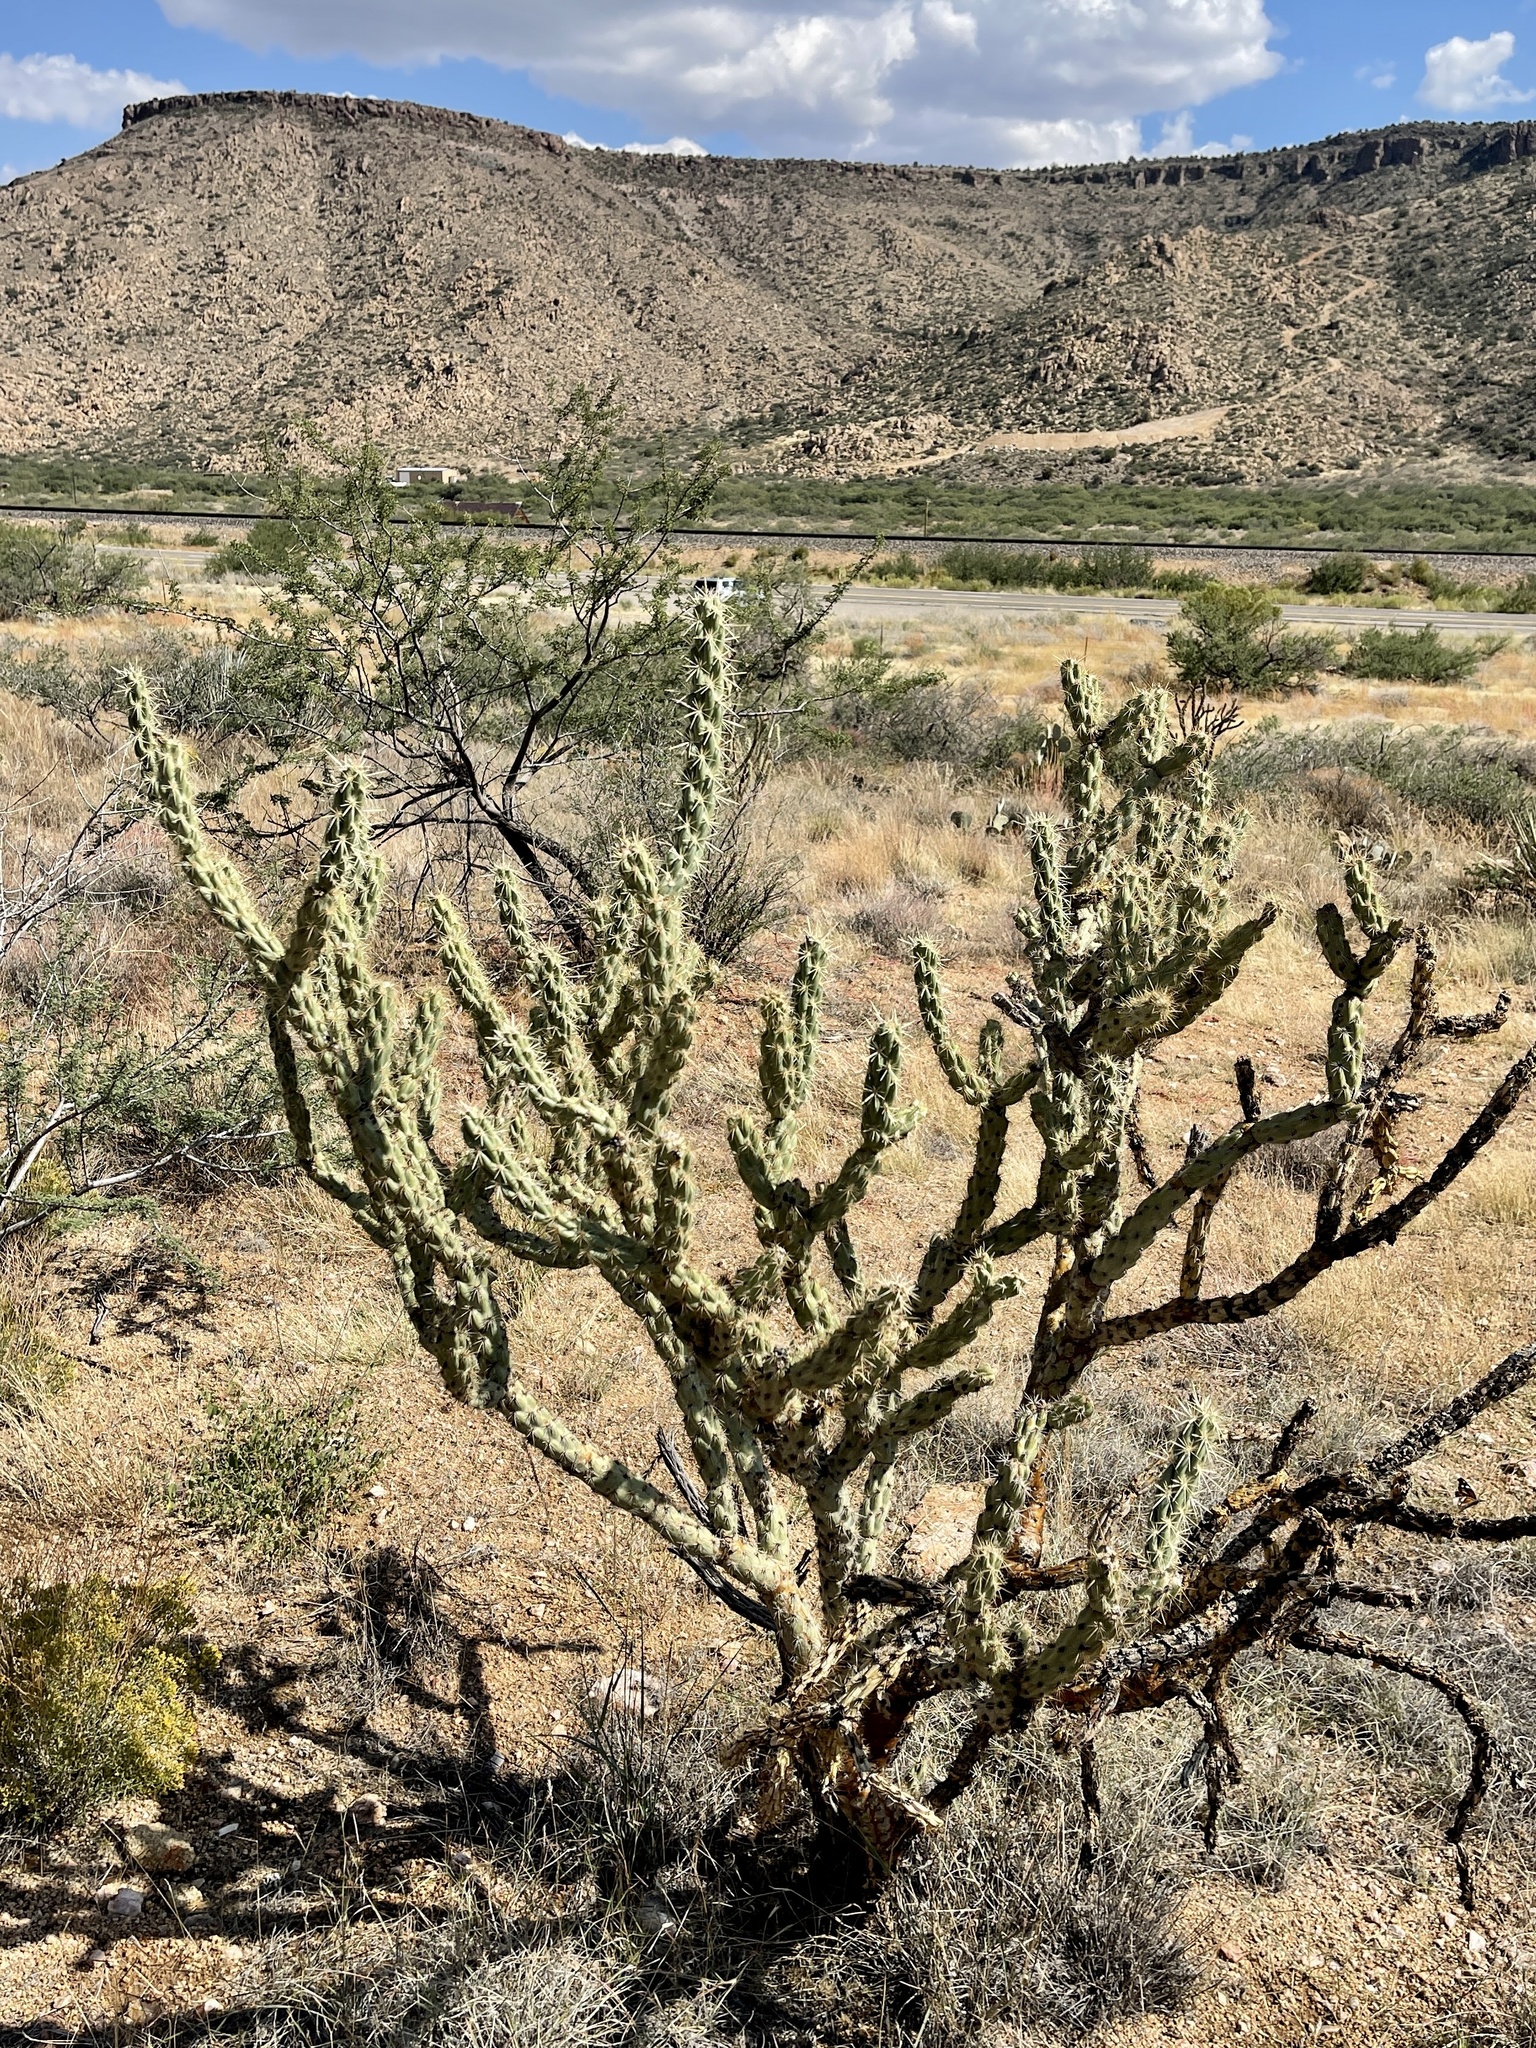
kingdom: Plantae
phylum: Tracheophyta
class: Magnoliopsida
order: Caryophyllales
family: Cactaceae
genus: Cylindropuntia
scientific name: Cylindropuntia acanthocarpa
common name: Buckhorn cholla
